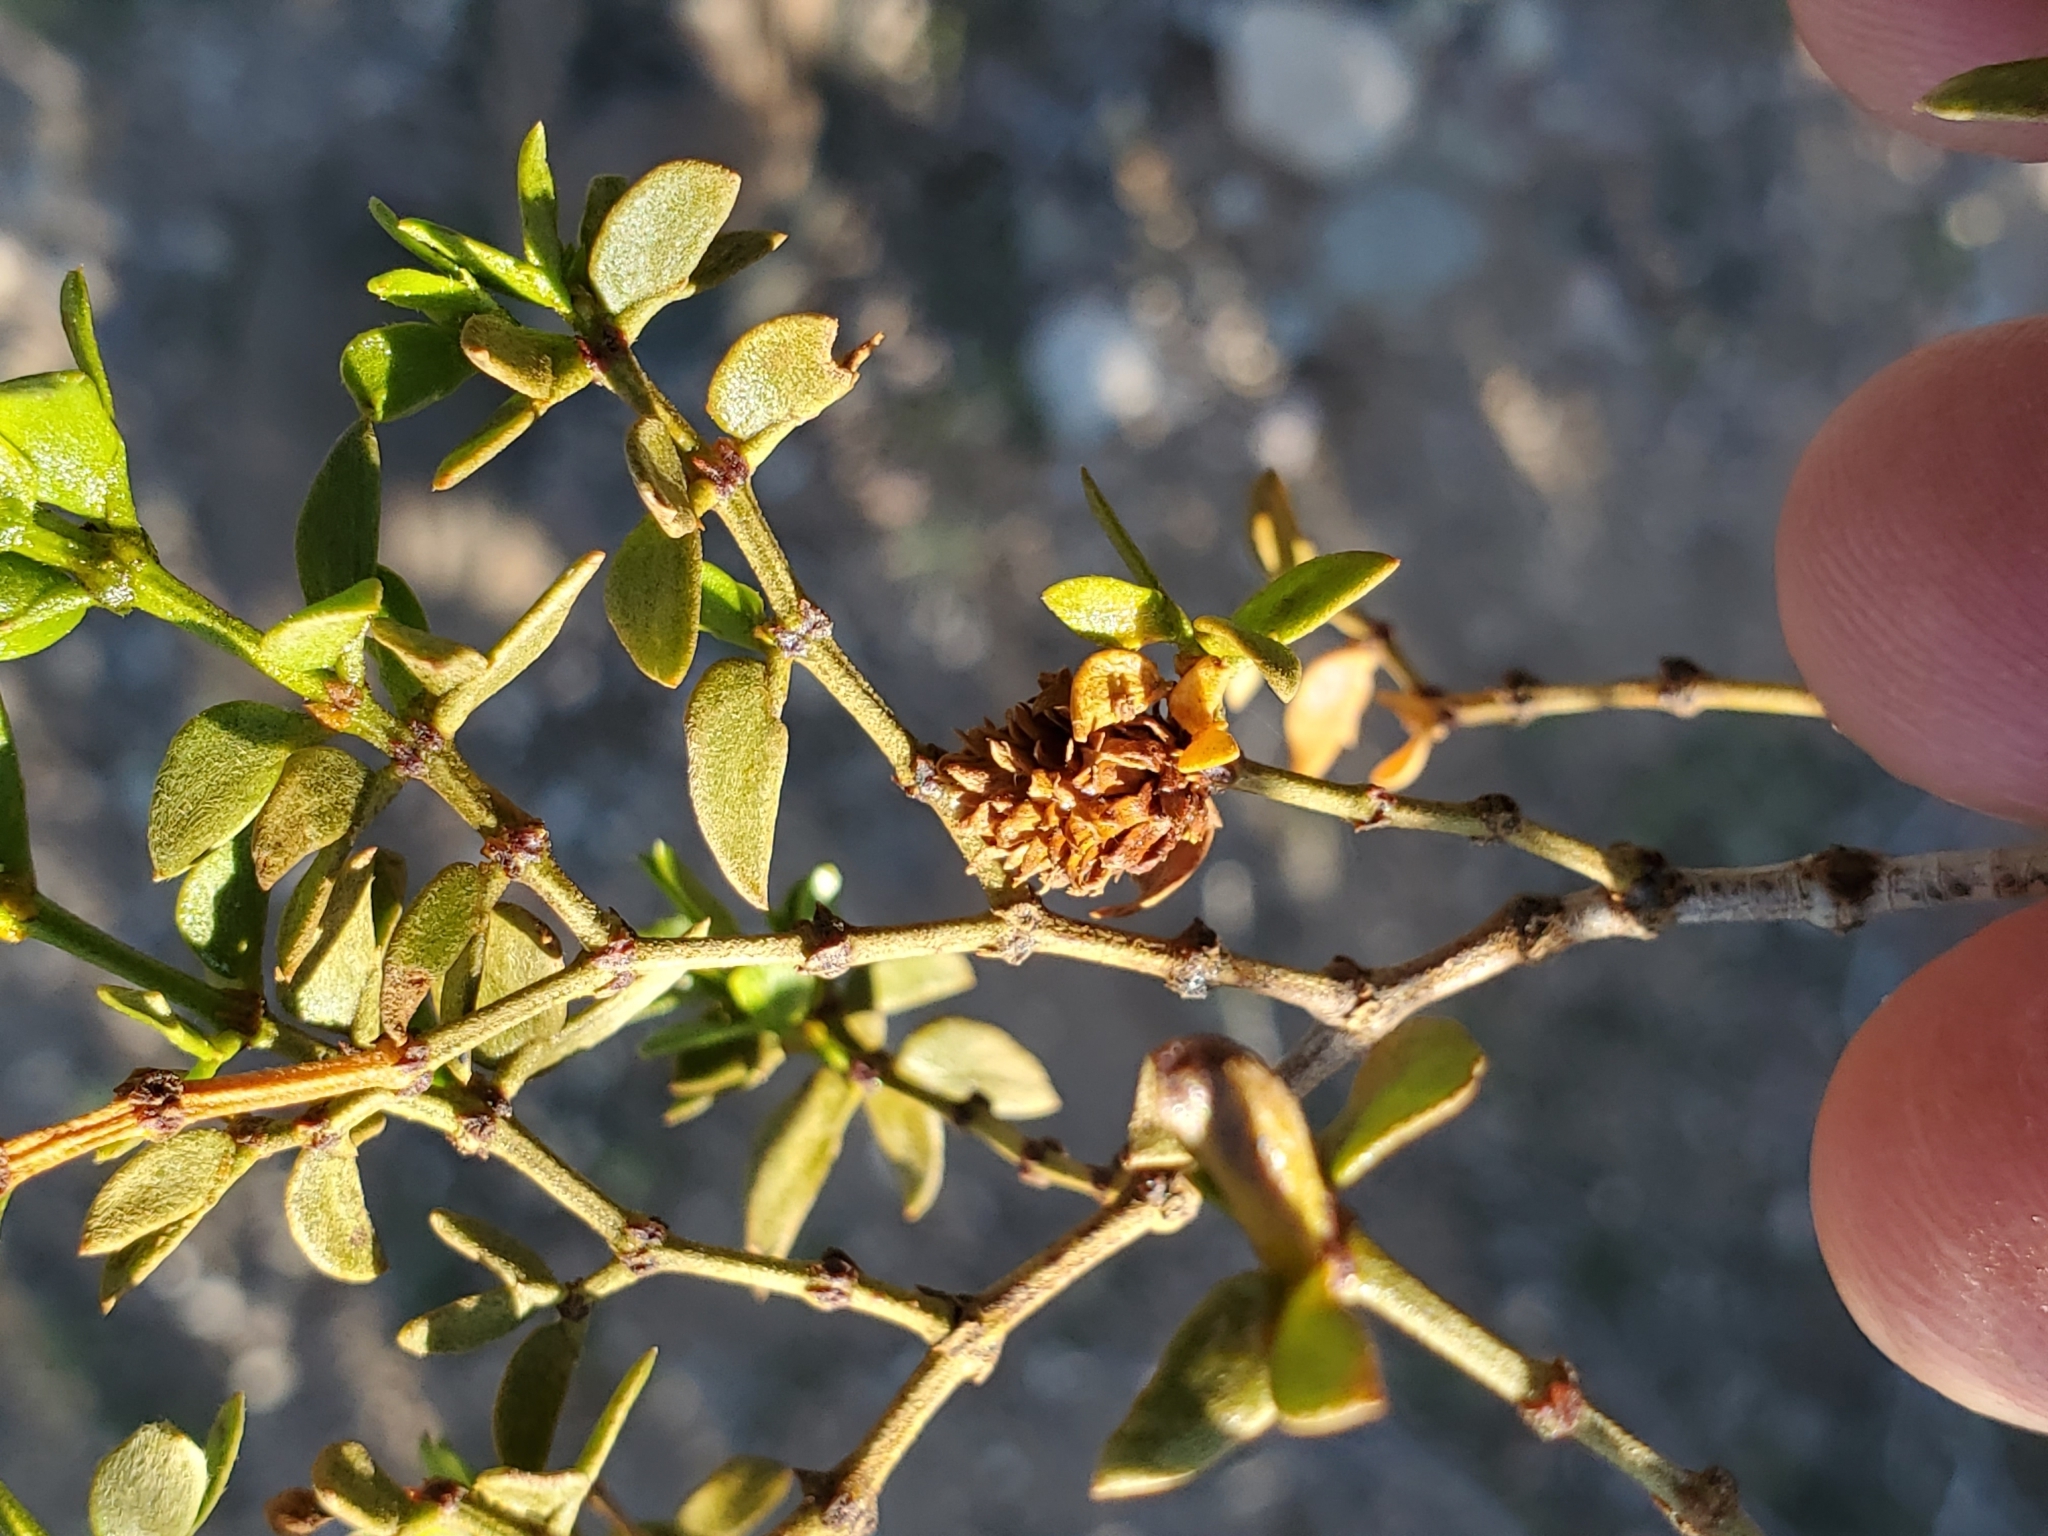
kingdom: Animalia
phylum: Arthropoda
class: Insecta
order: Diptera
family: Cecidomyiidae
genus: Asphondylia
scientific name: Asphondylia rosetta
